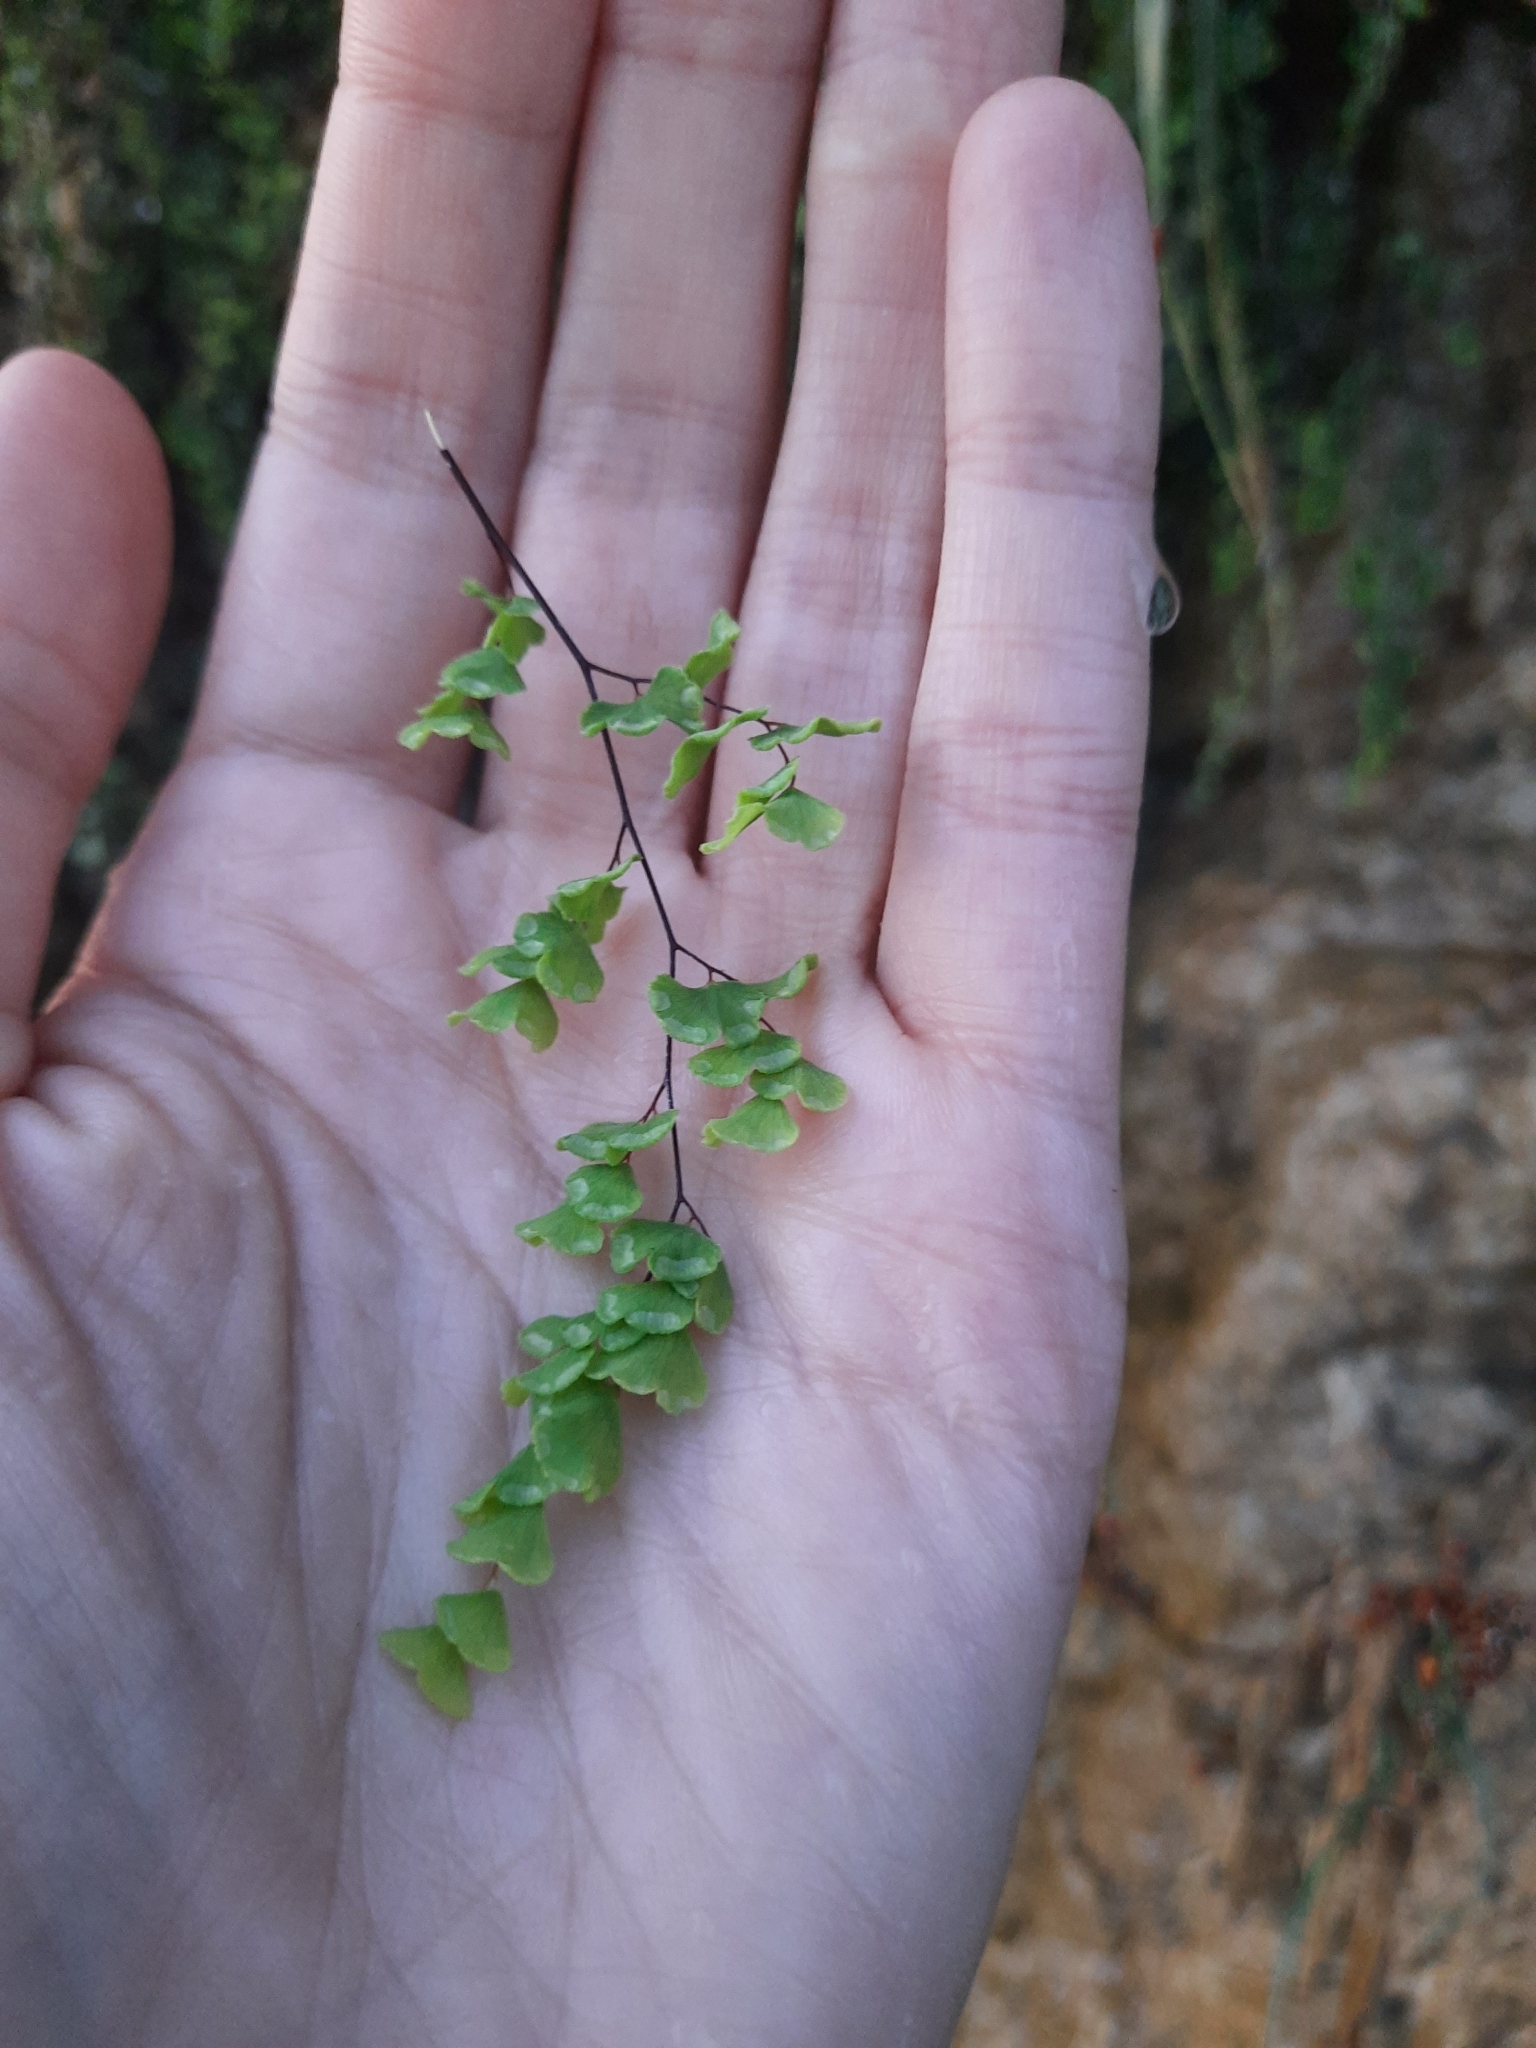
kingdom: Plantae
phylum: Tracheophyta
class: Polypodiopsida
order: Polypodiales
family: Pteridaceae
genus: Adiantum
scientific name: Adiantum capillus-veneris
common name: Maidenhair fern
